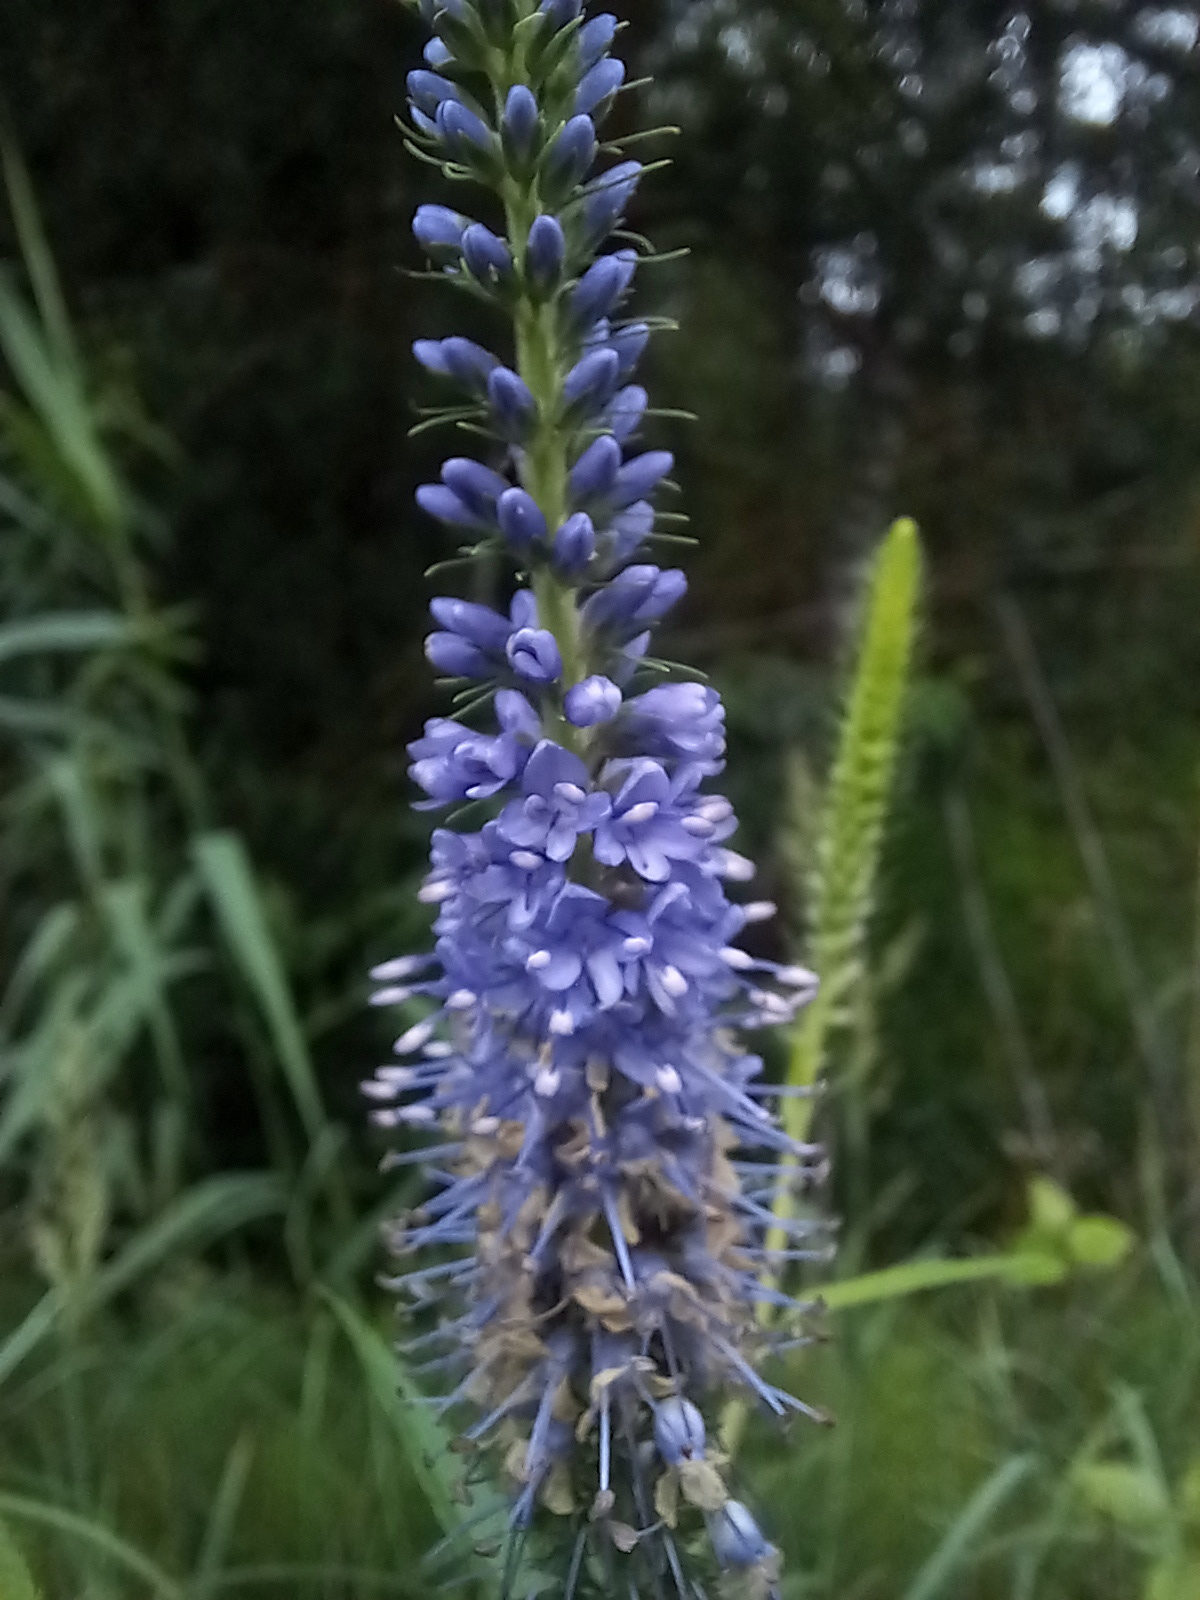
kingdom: Plantae
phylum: Tracheophyta
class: Magnoliopsida
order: Lamiales
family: Plantaginaceae
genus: Veronica
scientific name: Veronica longifolia
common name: Garden speedwell
